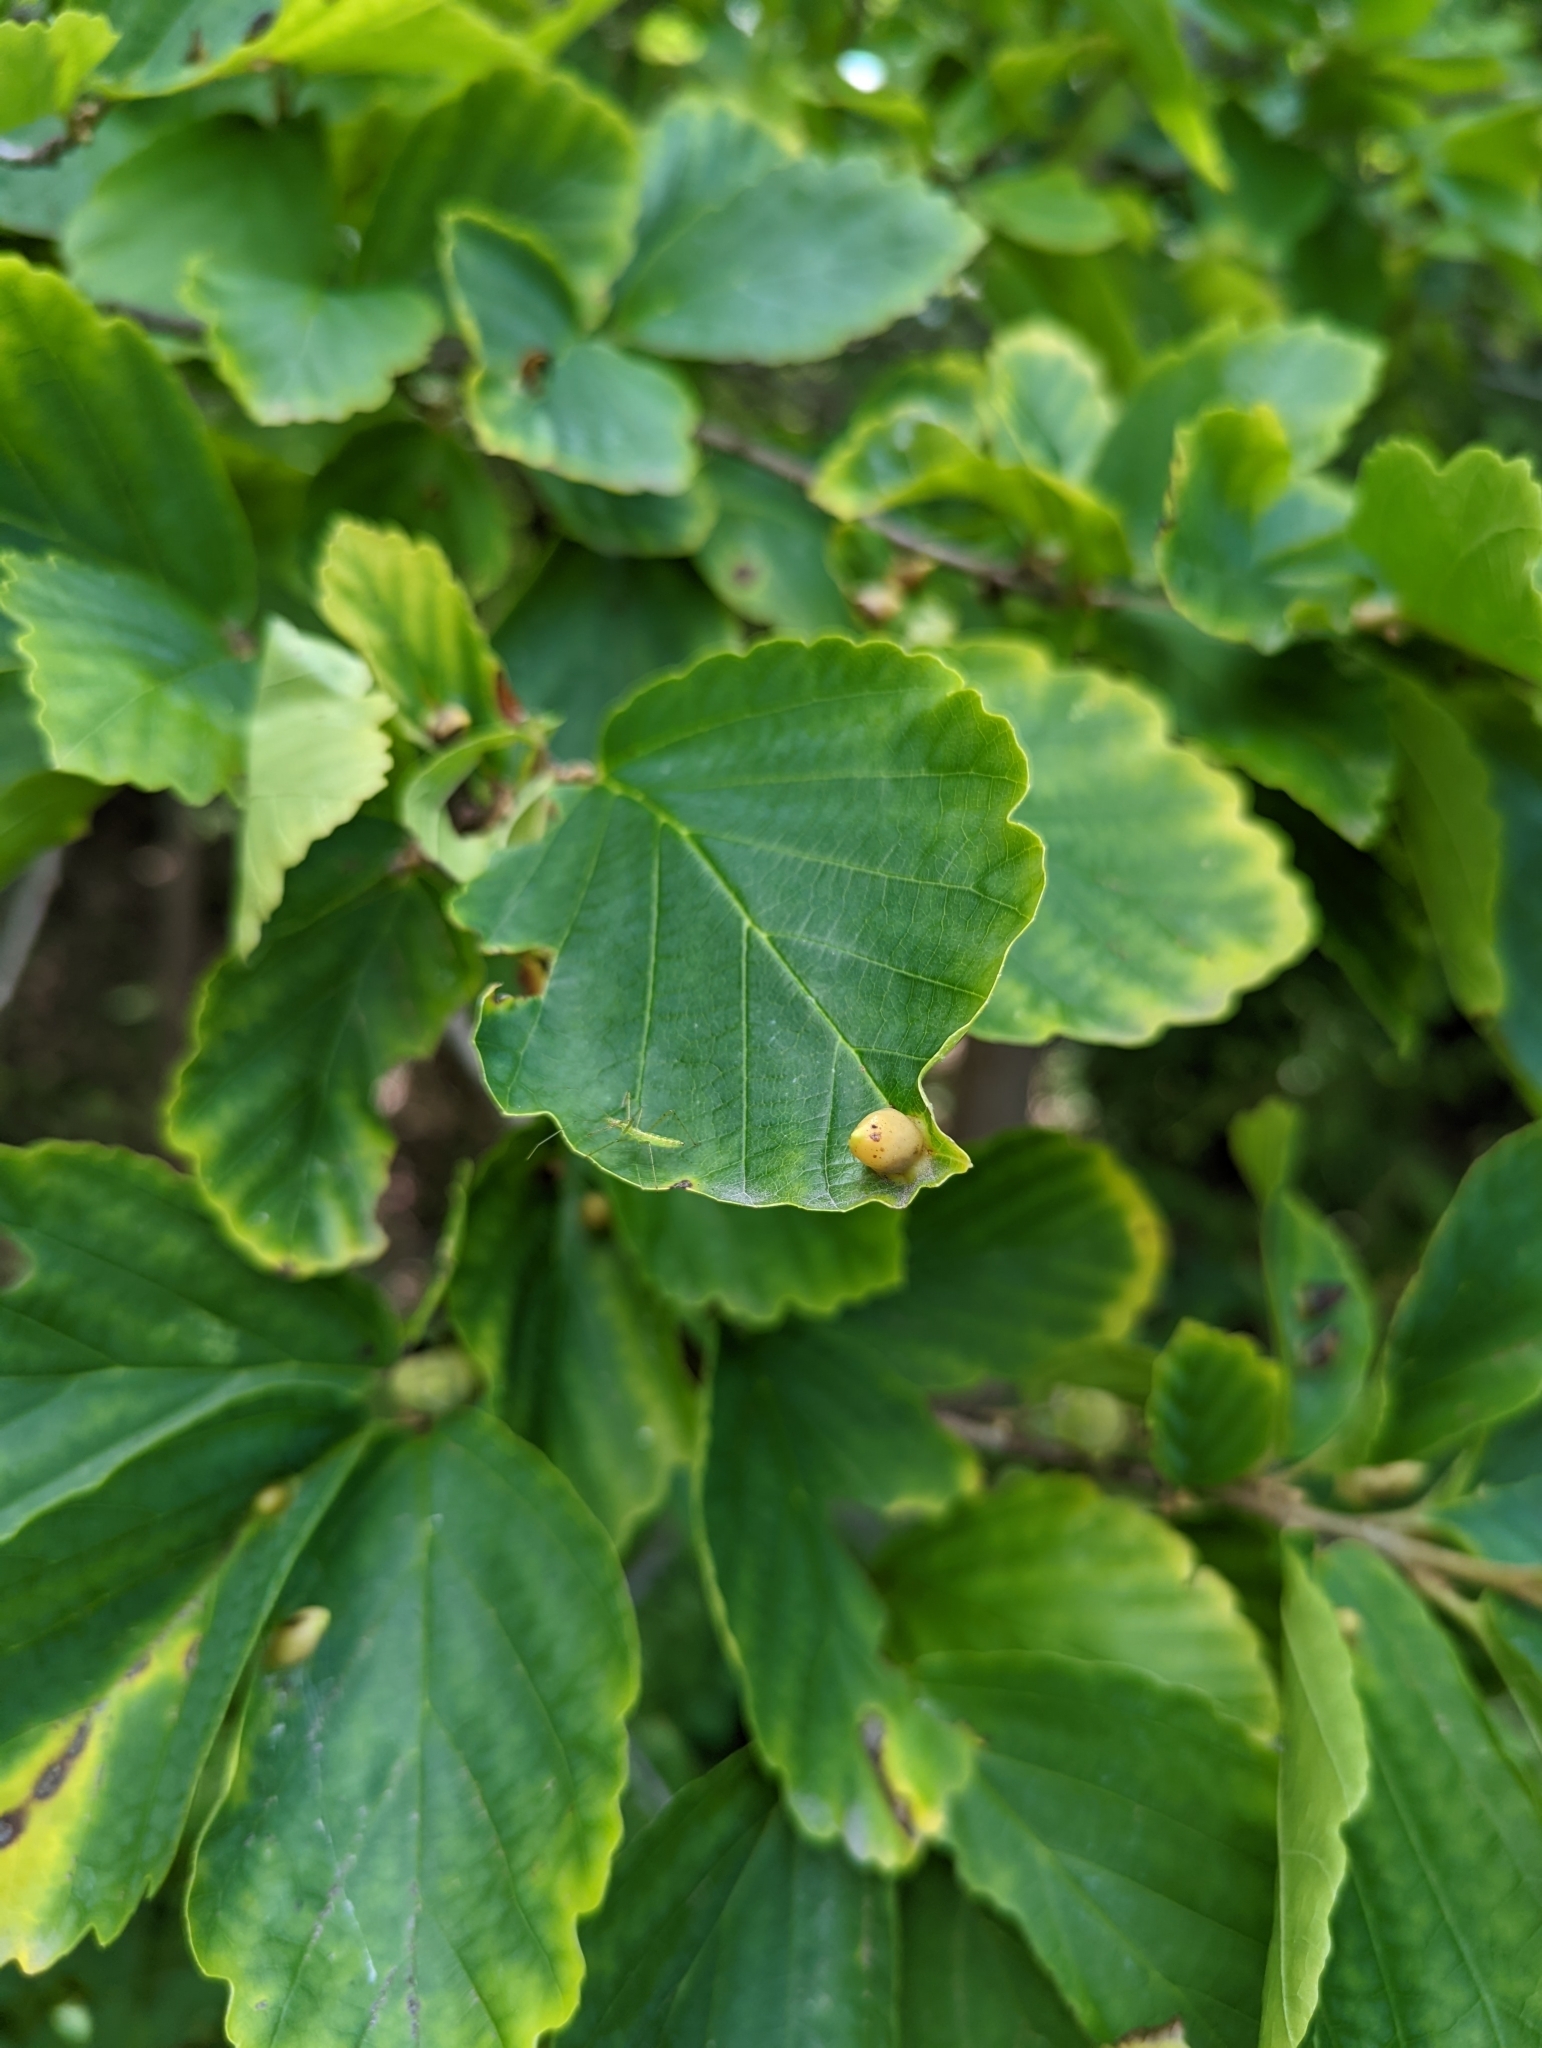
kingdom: Animalia
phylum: Arthropoda
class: Insecta
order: Hemiptera
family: Aphididae
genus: Hormaphis
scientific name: Hormaphis hamamelidis
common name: Witch-hazel cone gall aphid
